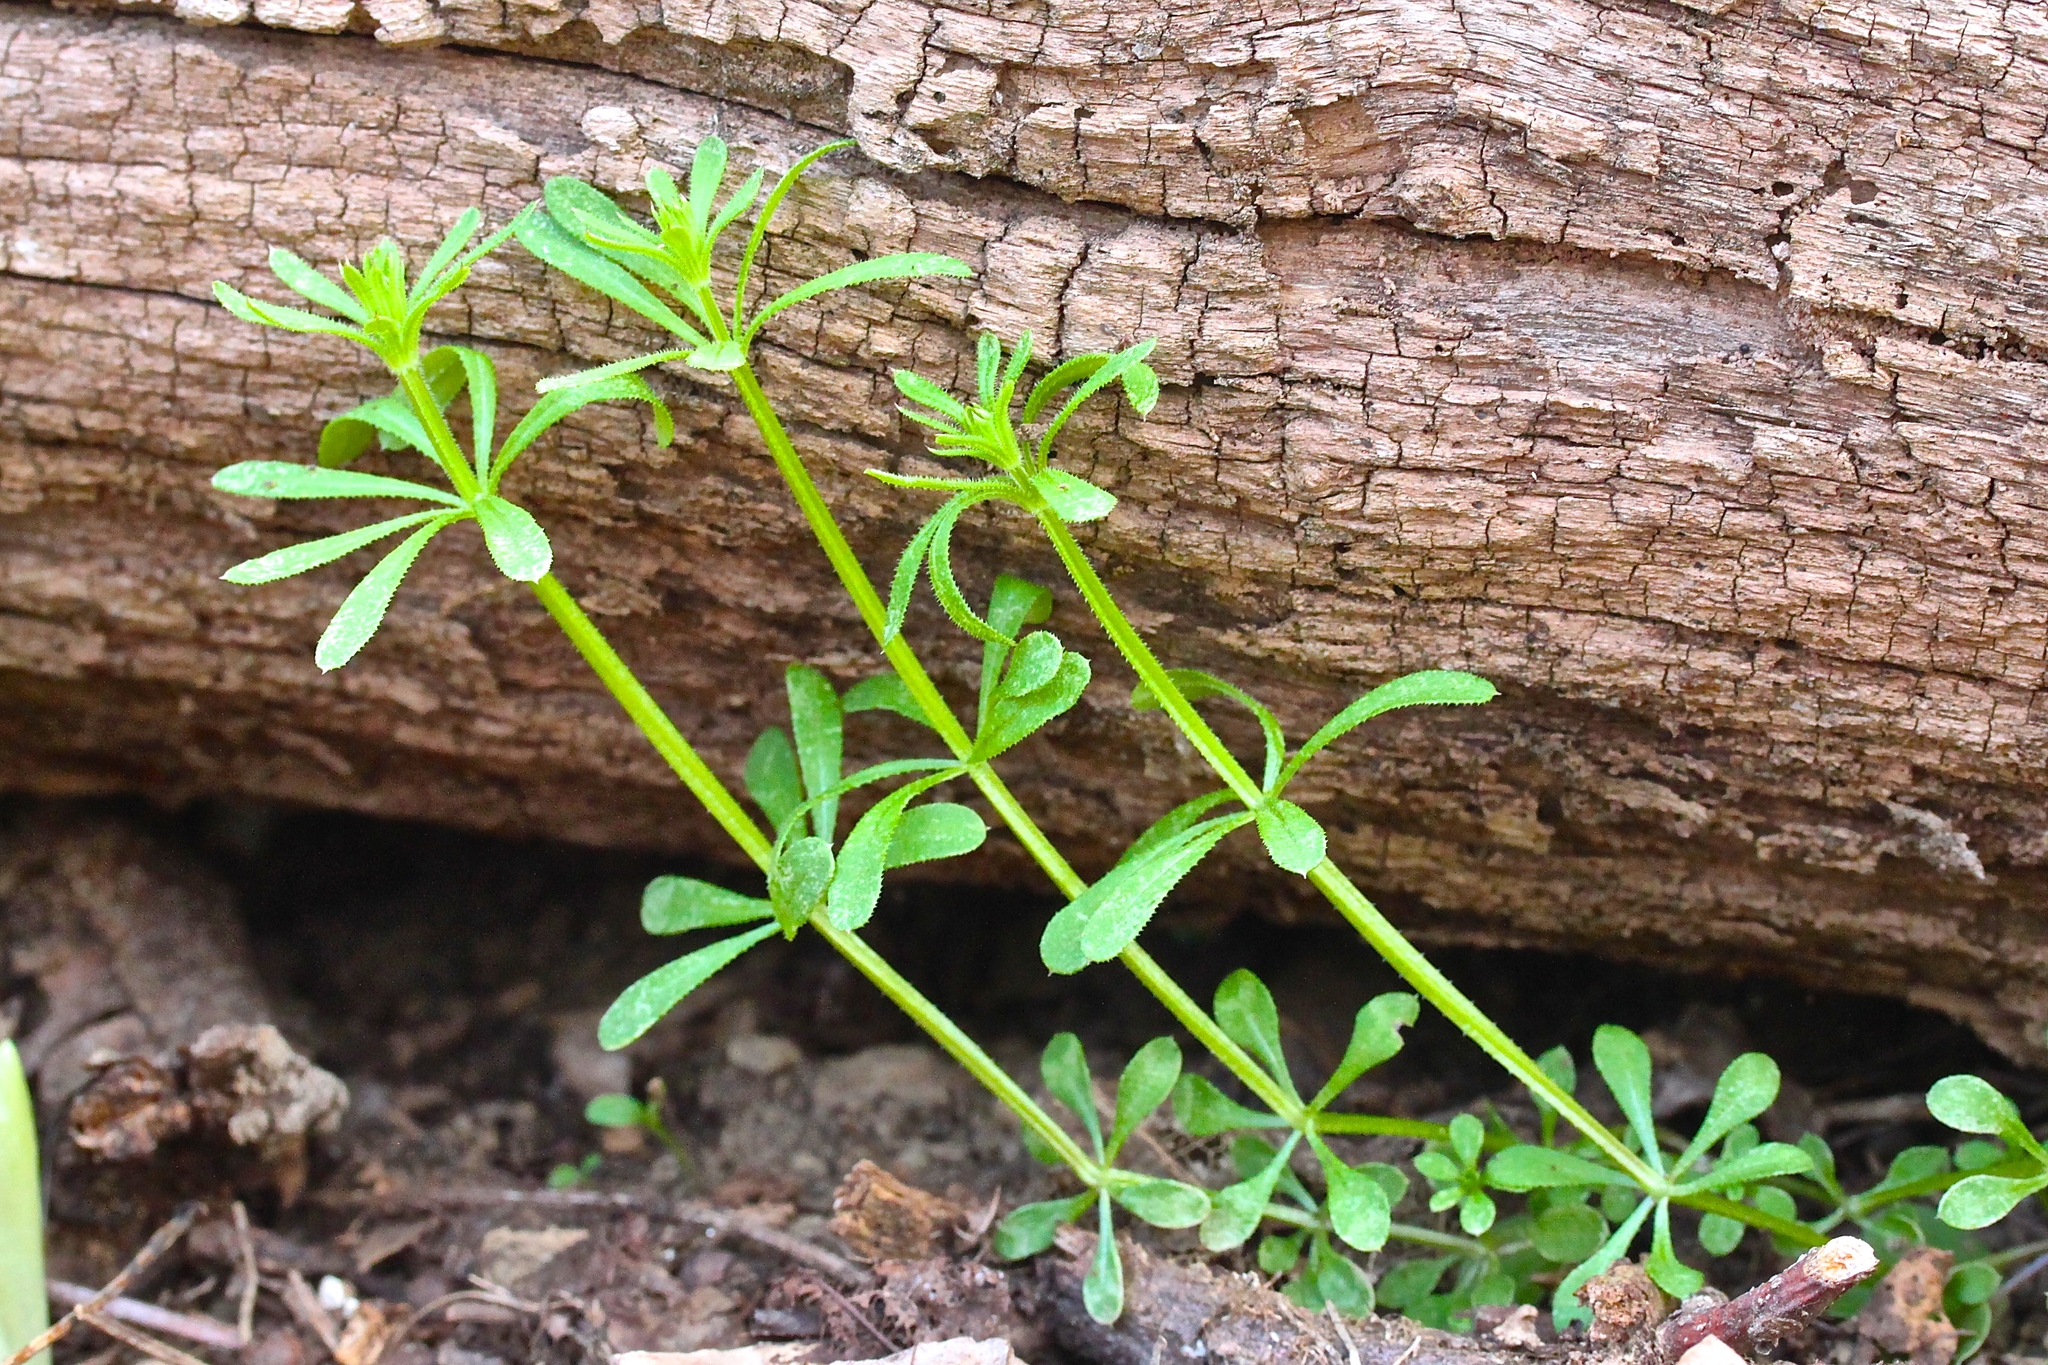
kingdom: Plantae
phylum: Tracheophyta
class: Magnoliopsida
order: Gentianales
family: Rubiaceae
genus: Galium
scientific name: Galium aparine
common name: Cleavers
